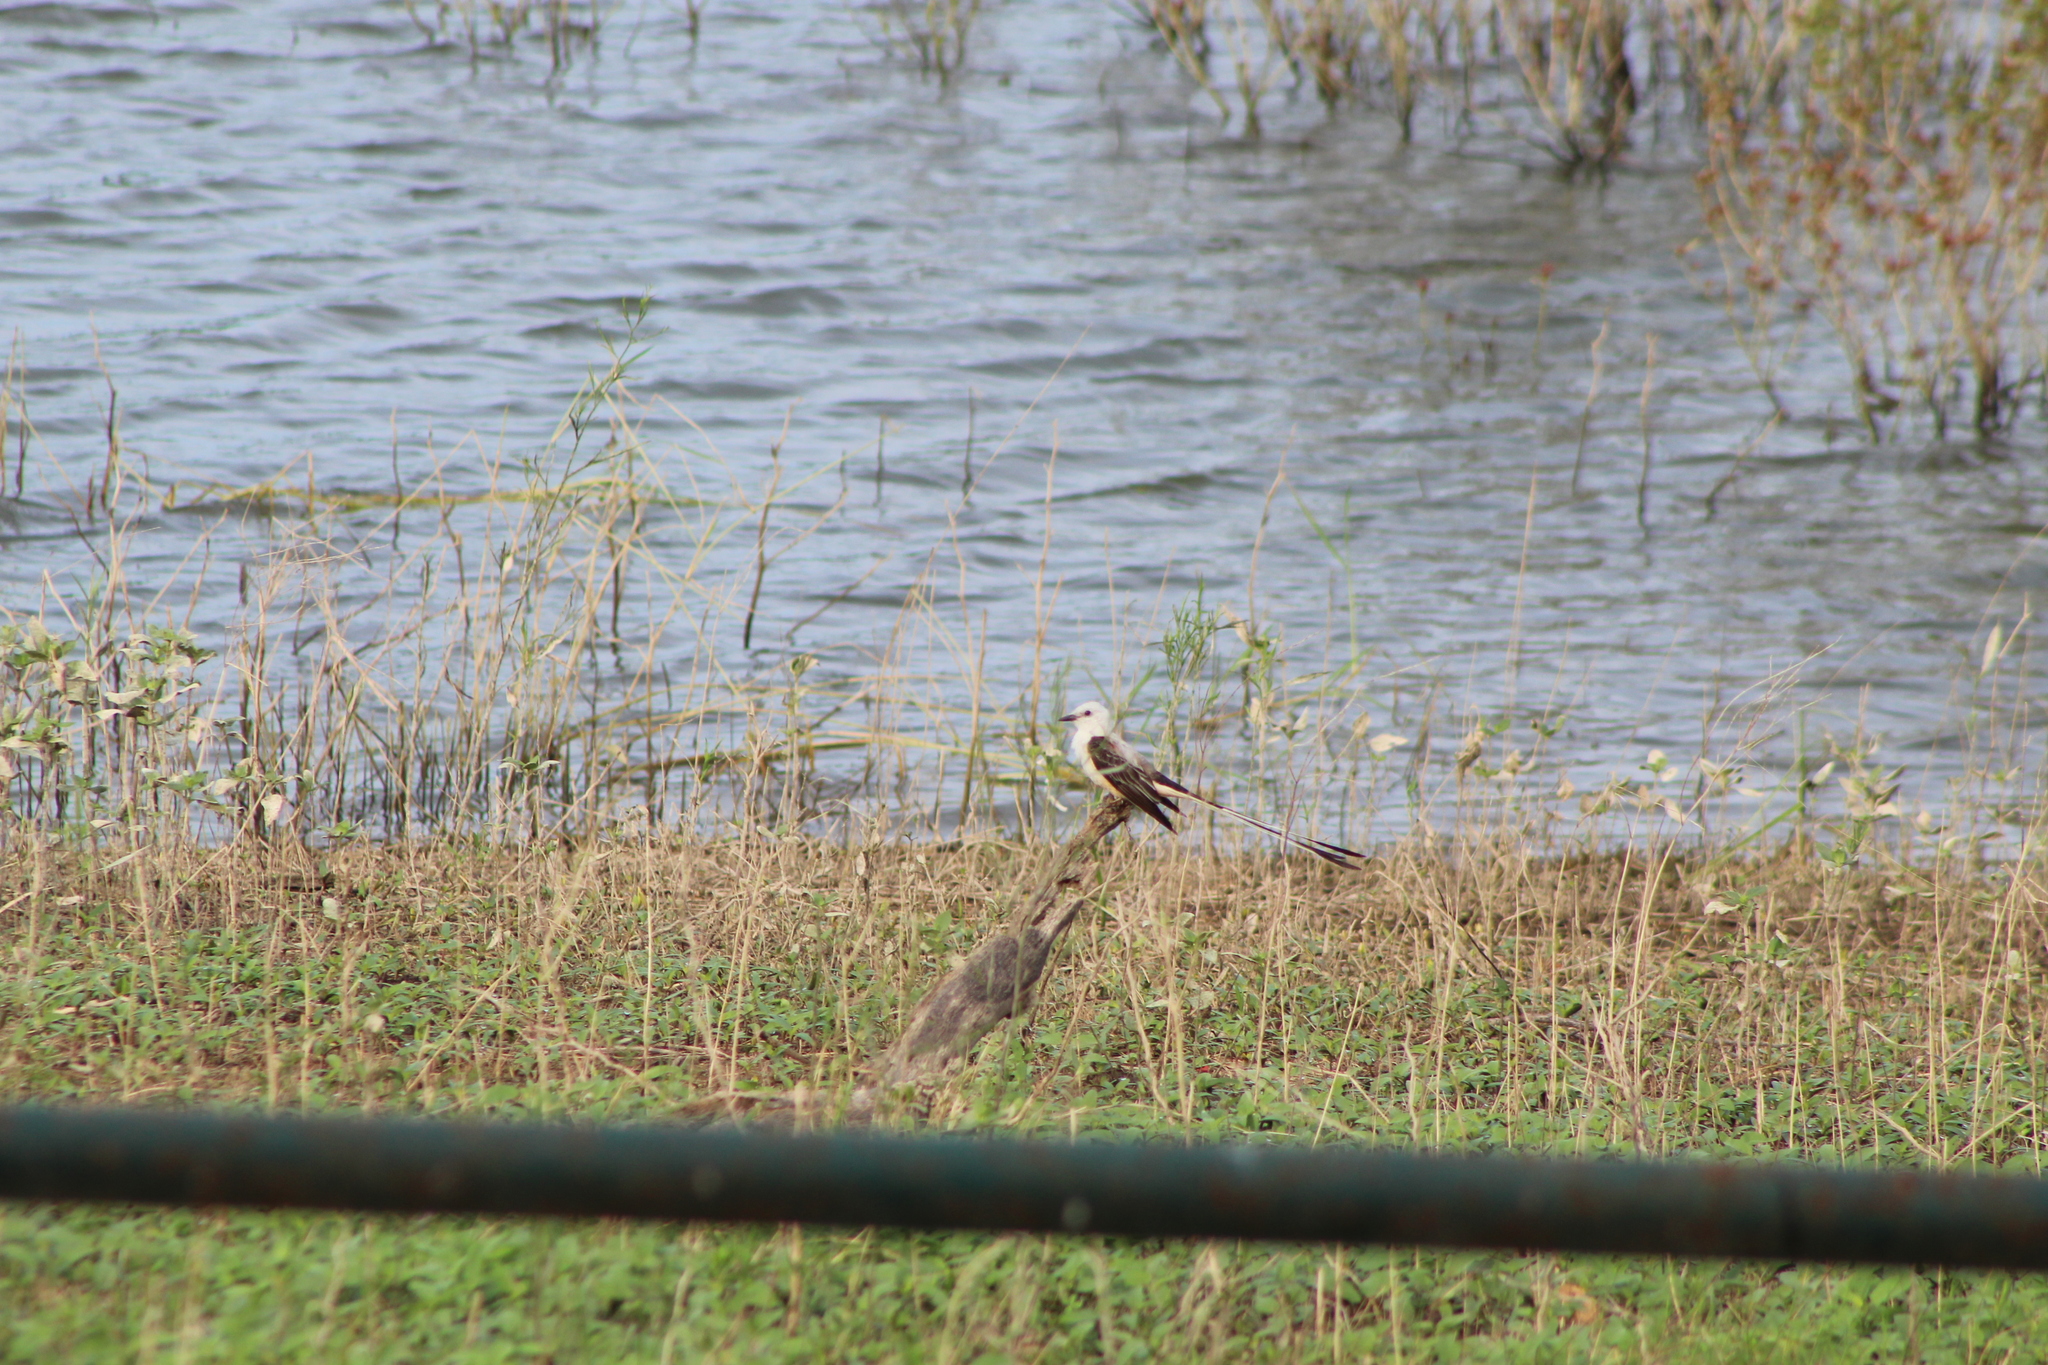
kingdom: Animalia
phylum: Chordata
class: Aves
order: Passeriformes
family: Tyrannidae
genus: Tyrannus
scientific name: Tyrannus forficatus
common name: Scissor-tailed flycatcher
